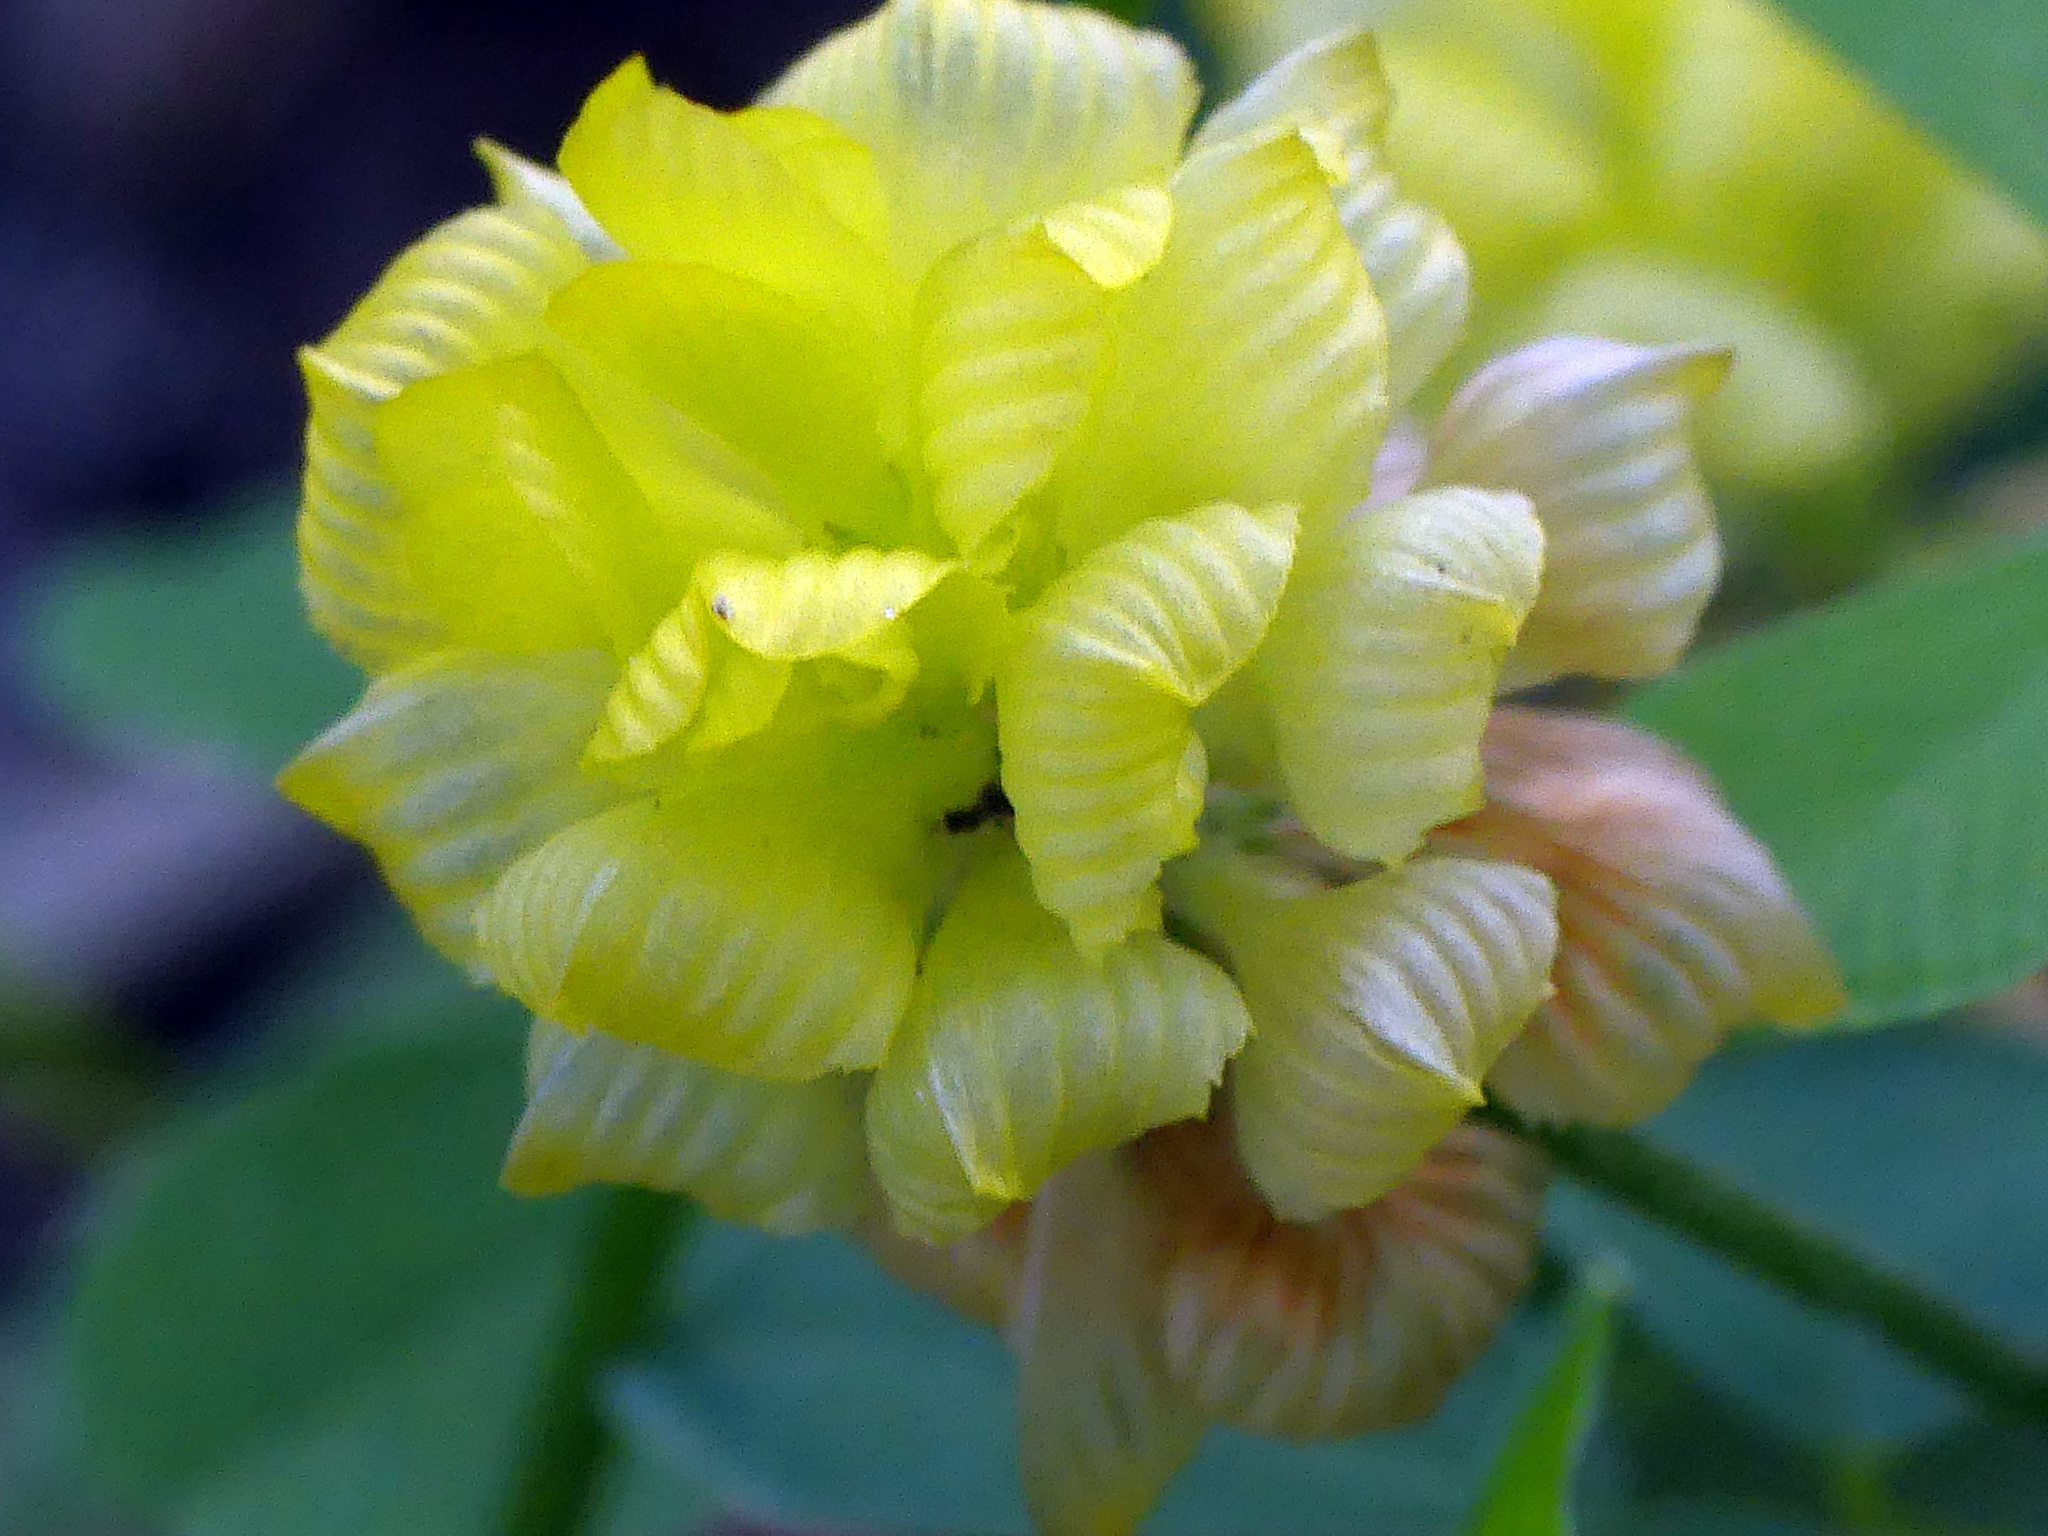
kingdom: Plantae
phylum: Tracheophyta
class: Magnoliopsida
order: Fabales
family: Fabaceae
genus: Trifolium
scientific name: Trifolium campestre
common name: Field clover
